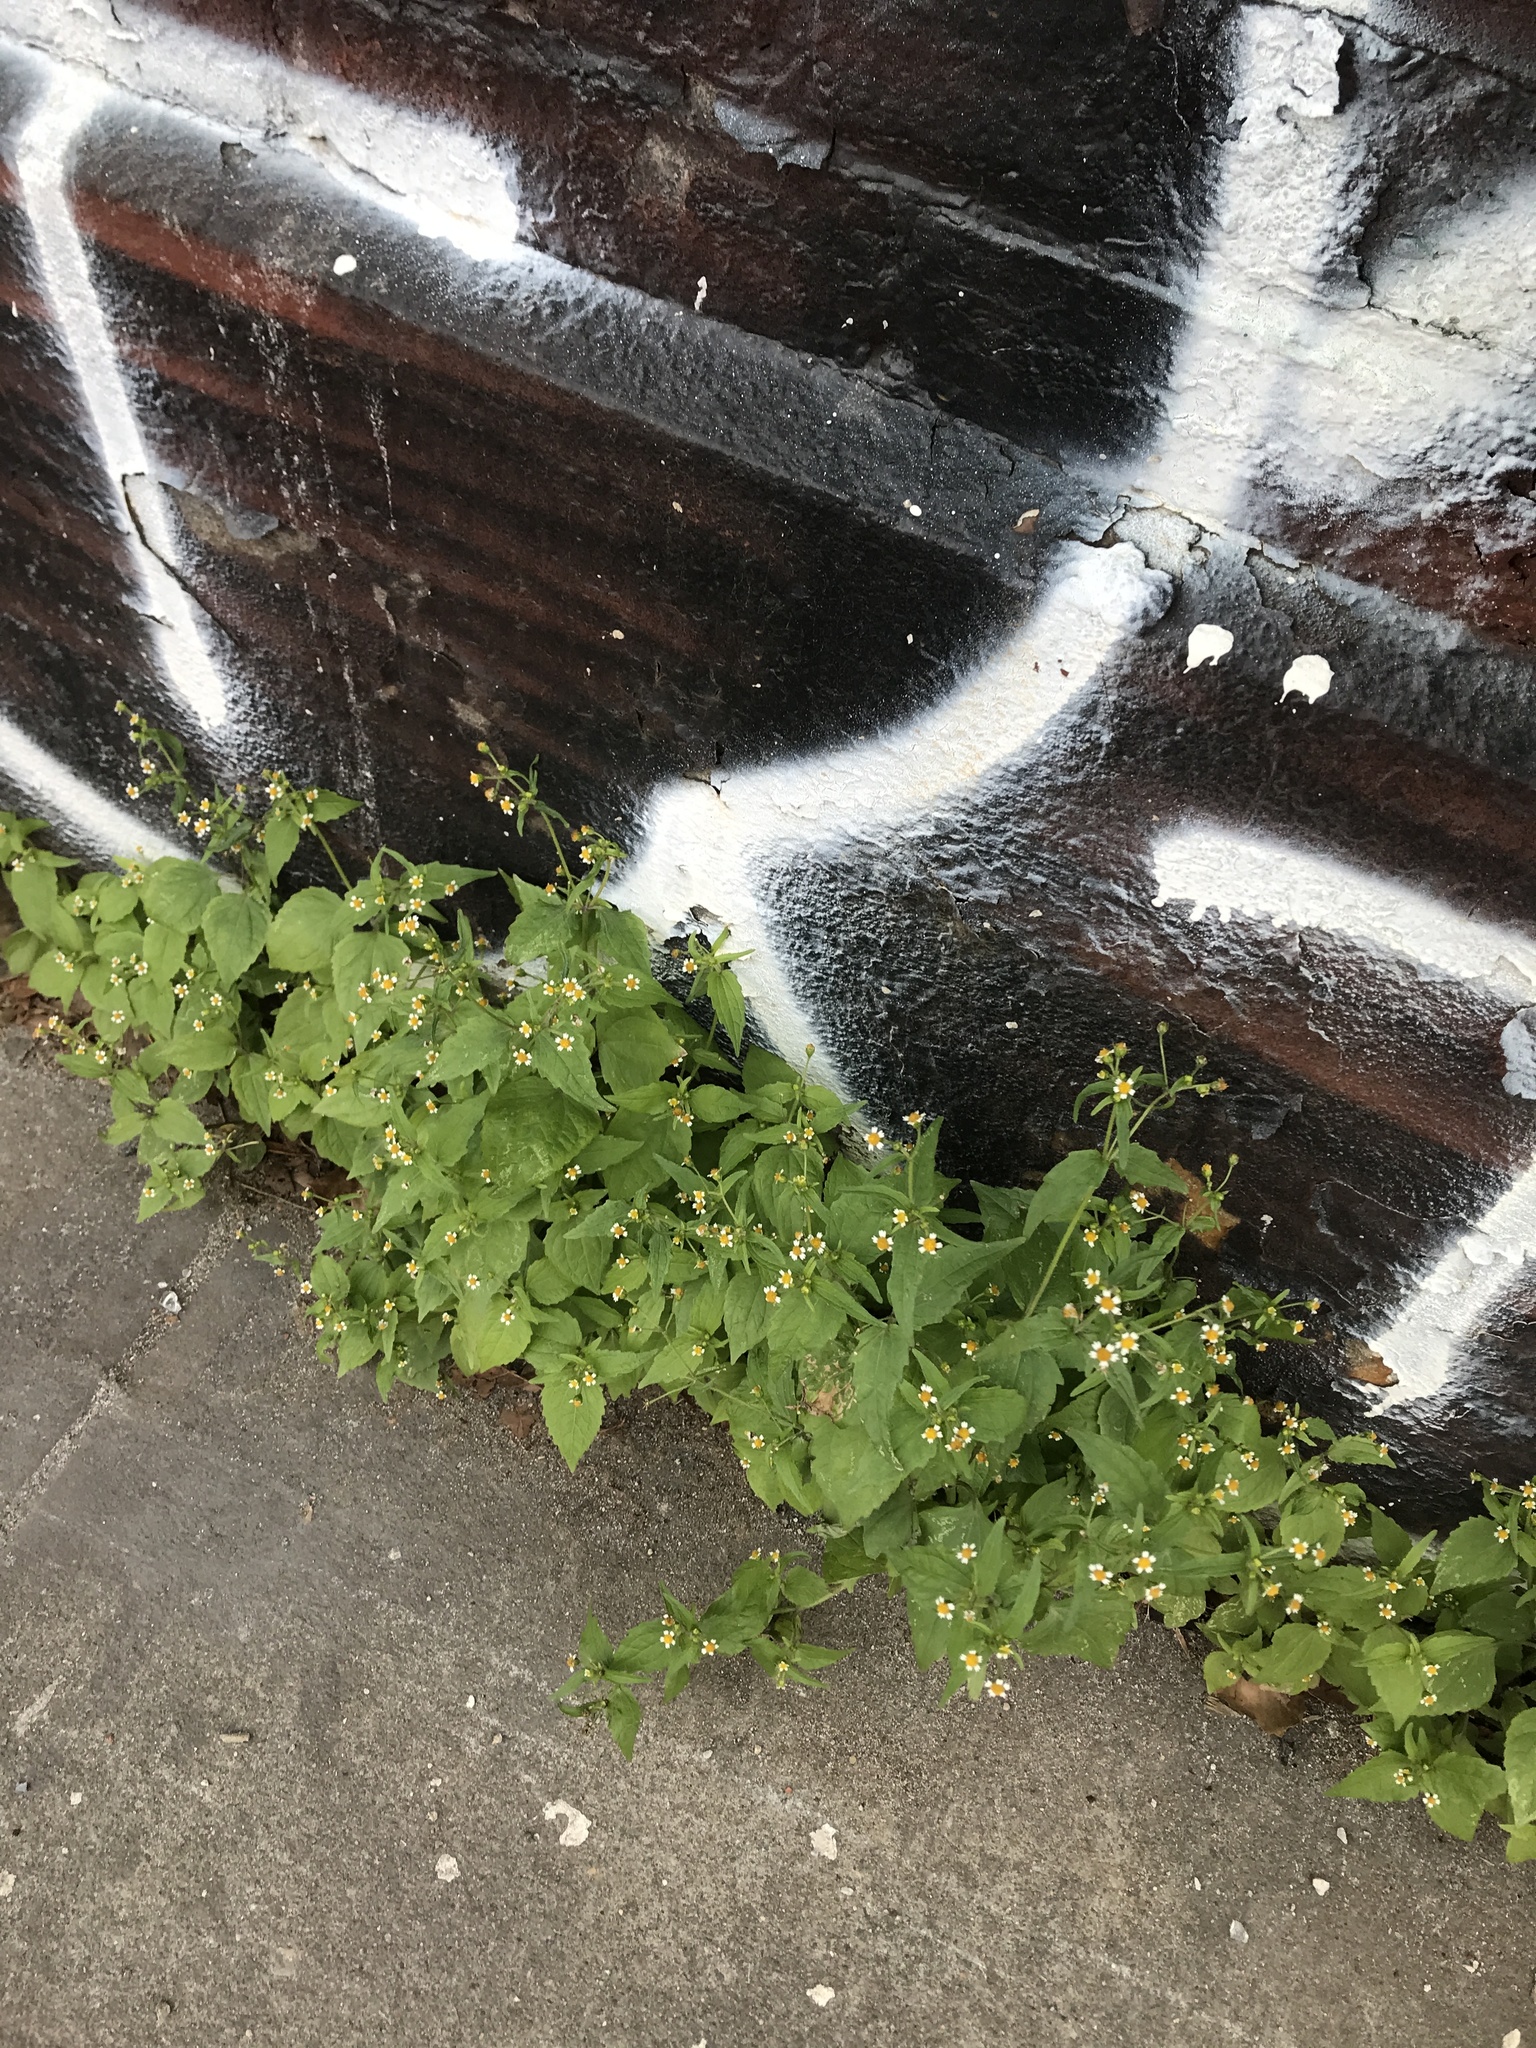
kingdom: Plantae
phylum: Tracheophyta
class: Magnoliopsida
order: Asterales
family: Asteraceae
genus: Galinsoga
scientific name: Galinsoga parviflora
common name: Gallant soldier
